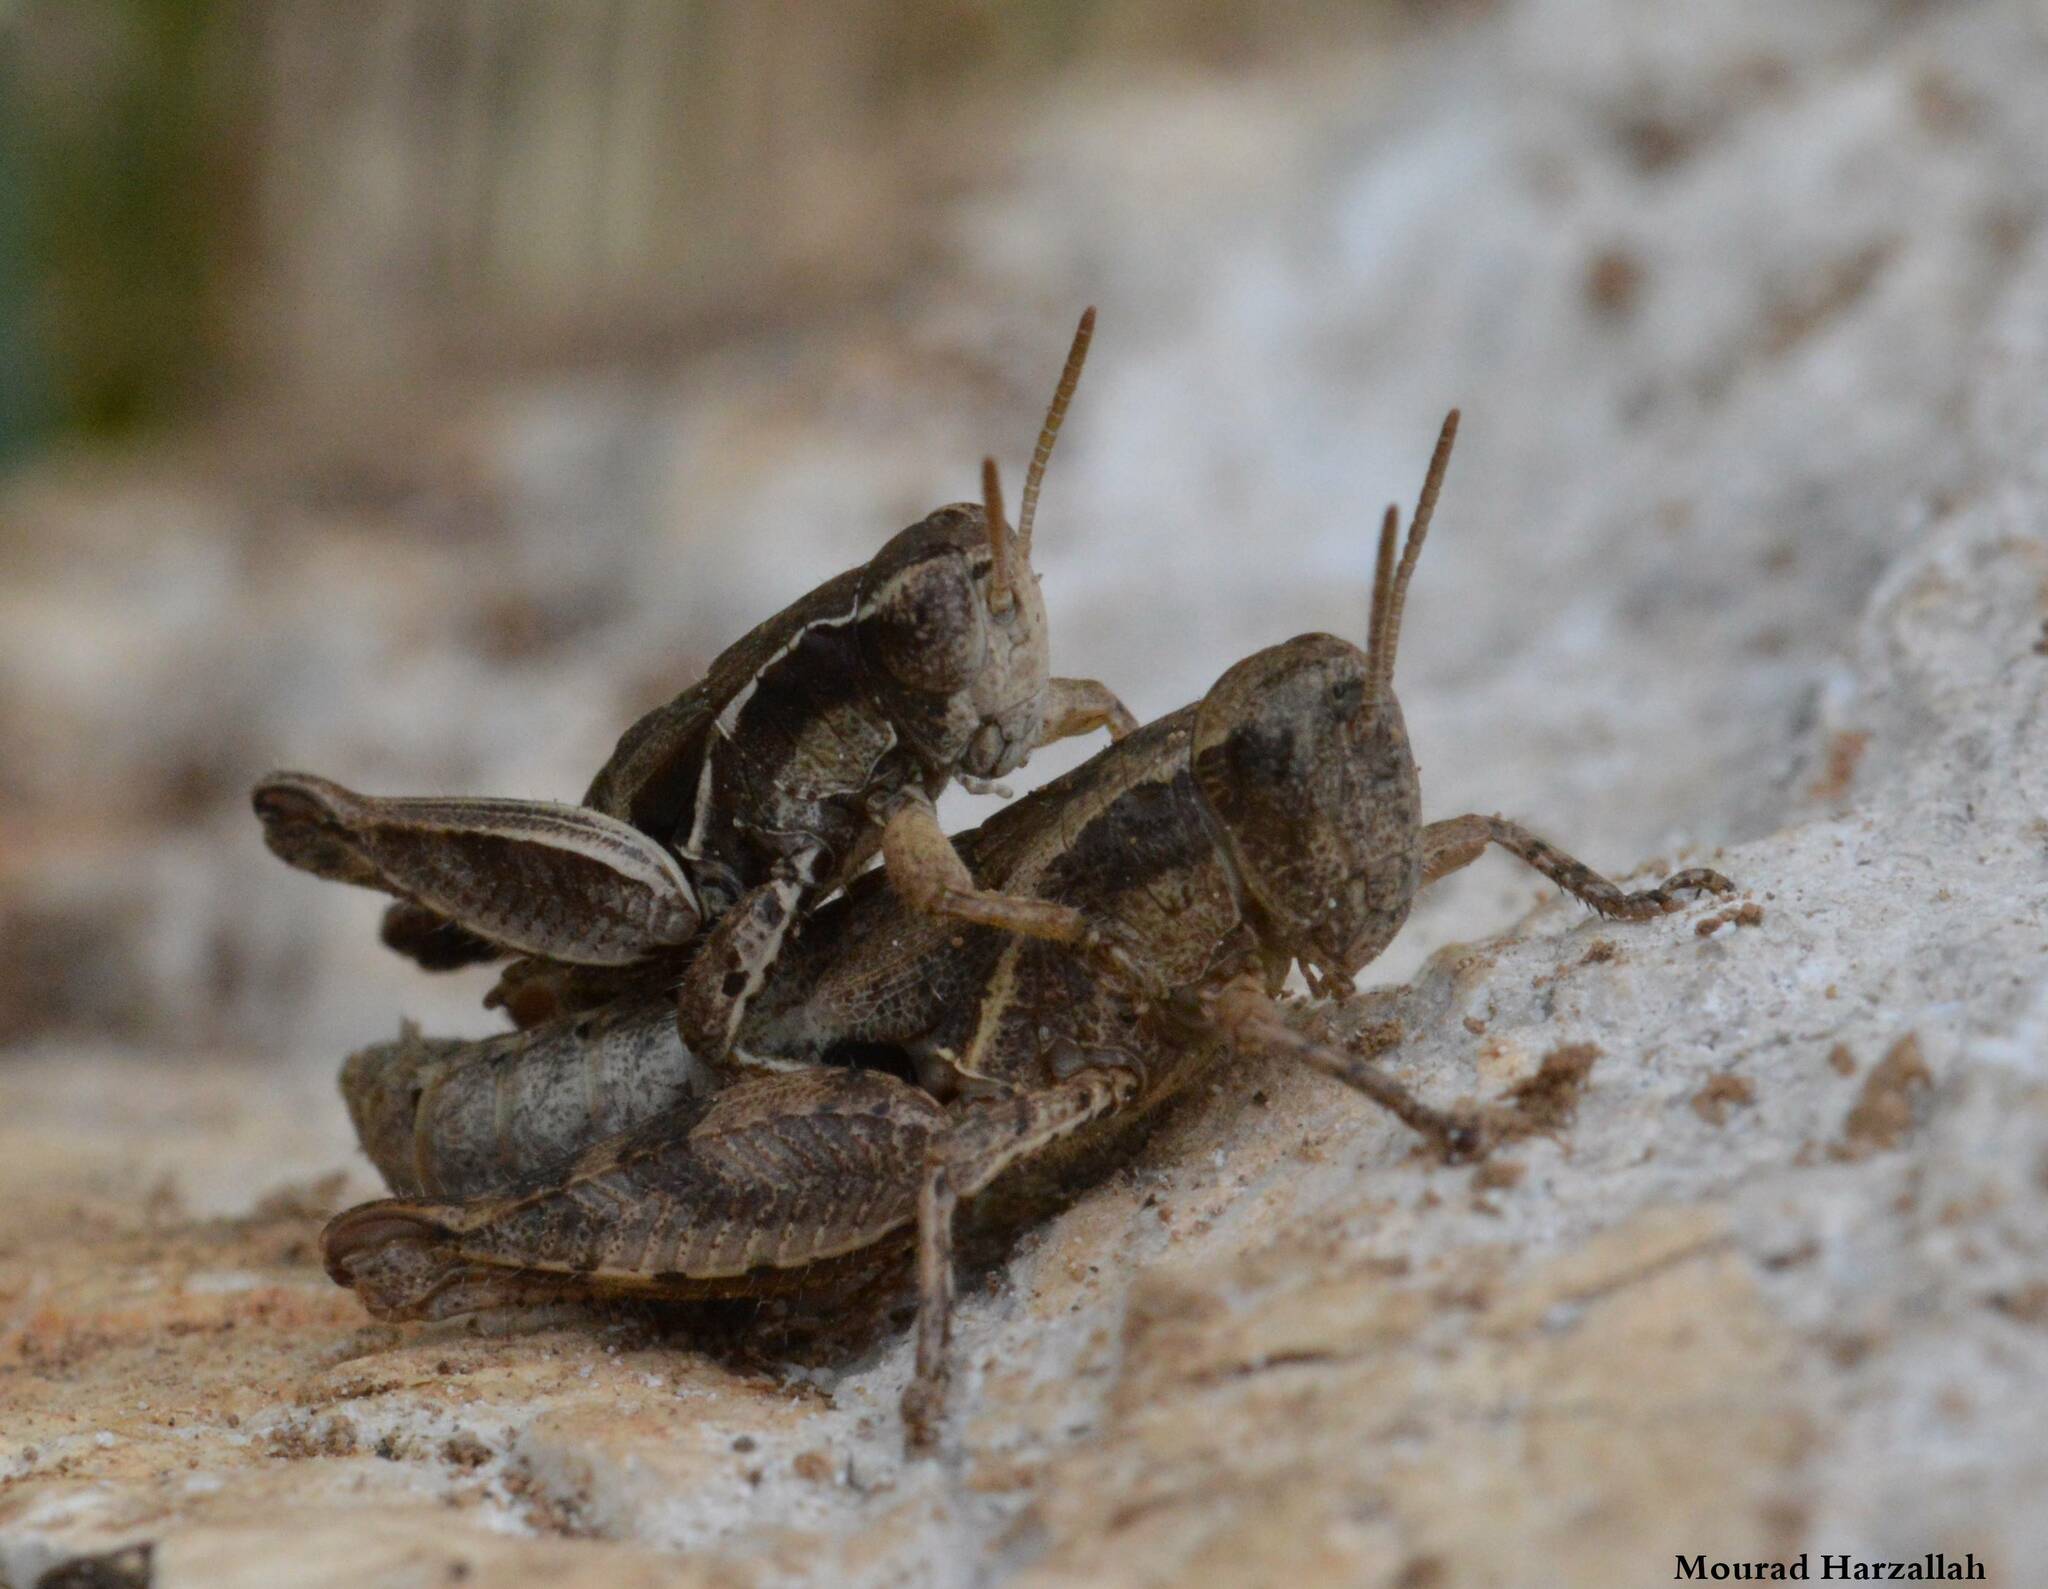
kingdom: Animalia
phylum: Arthropoda
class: Insecta
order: Orthoptera
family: Acrididae
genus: Pezotettix
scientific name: Pezotettix giornae
